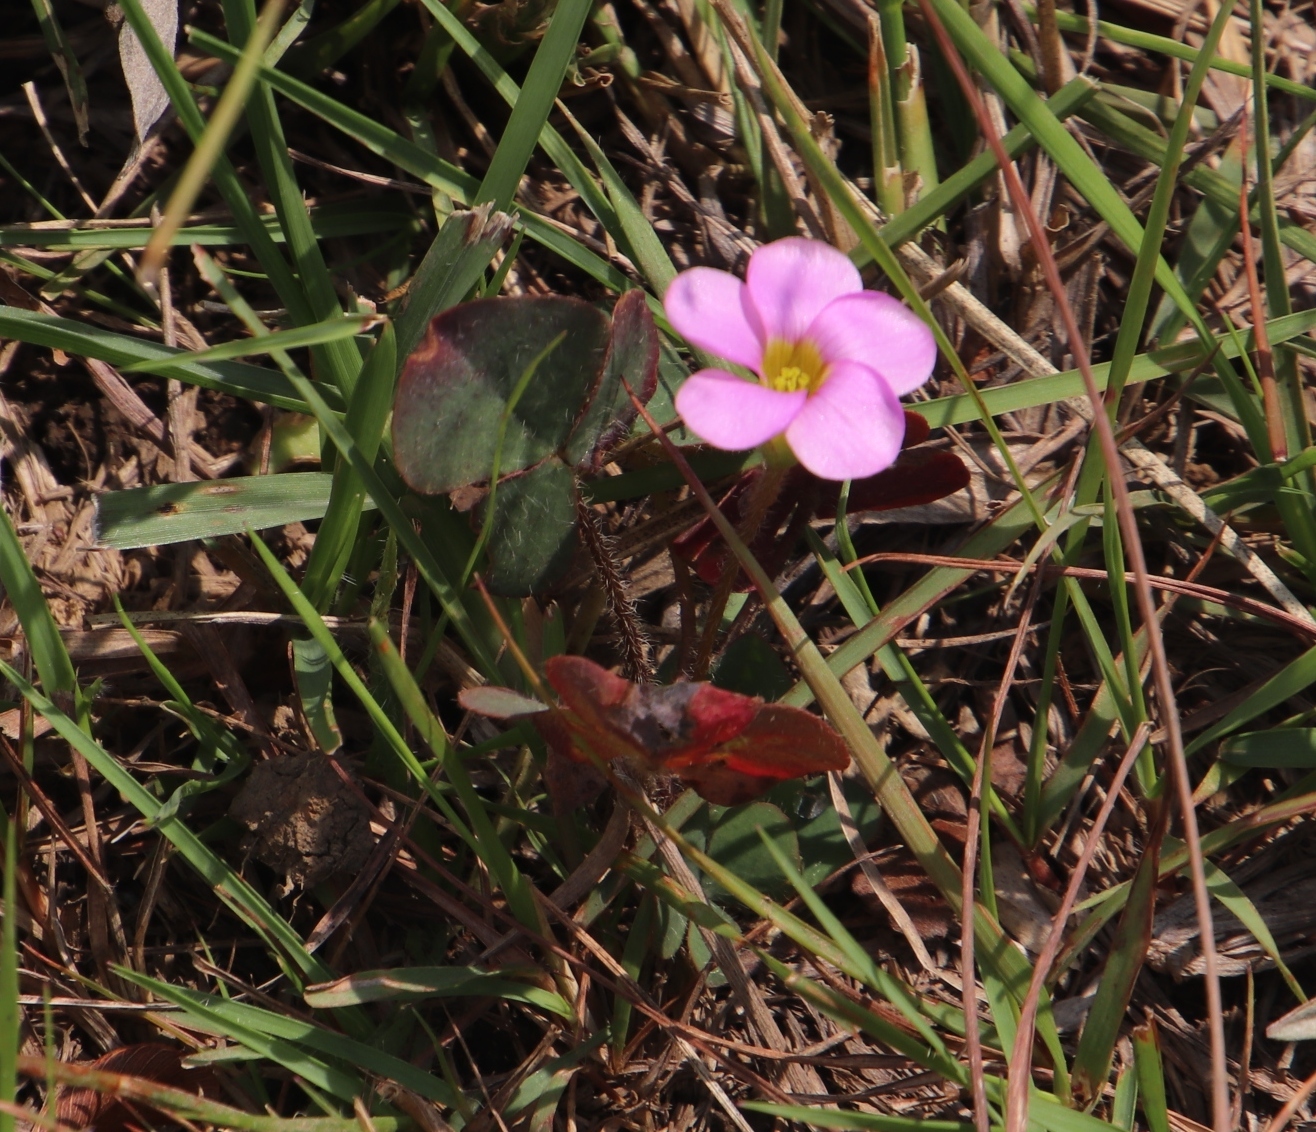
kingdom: Plantae
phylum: Tracheophyta
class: Magnoliopsida
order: Oxalidales
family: Oxalidaceae
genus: Oxalis
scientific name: Oxalis obliquifolia
